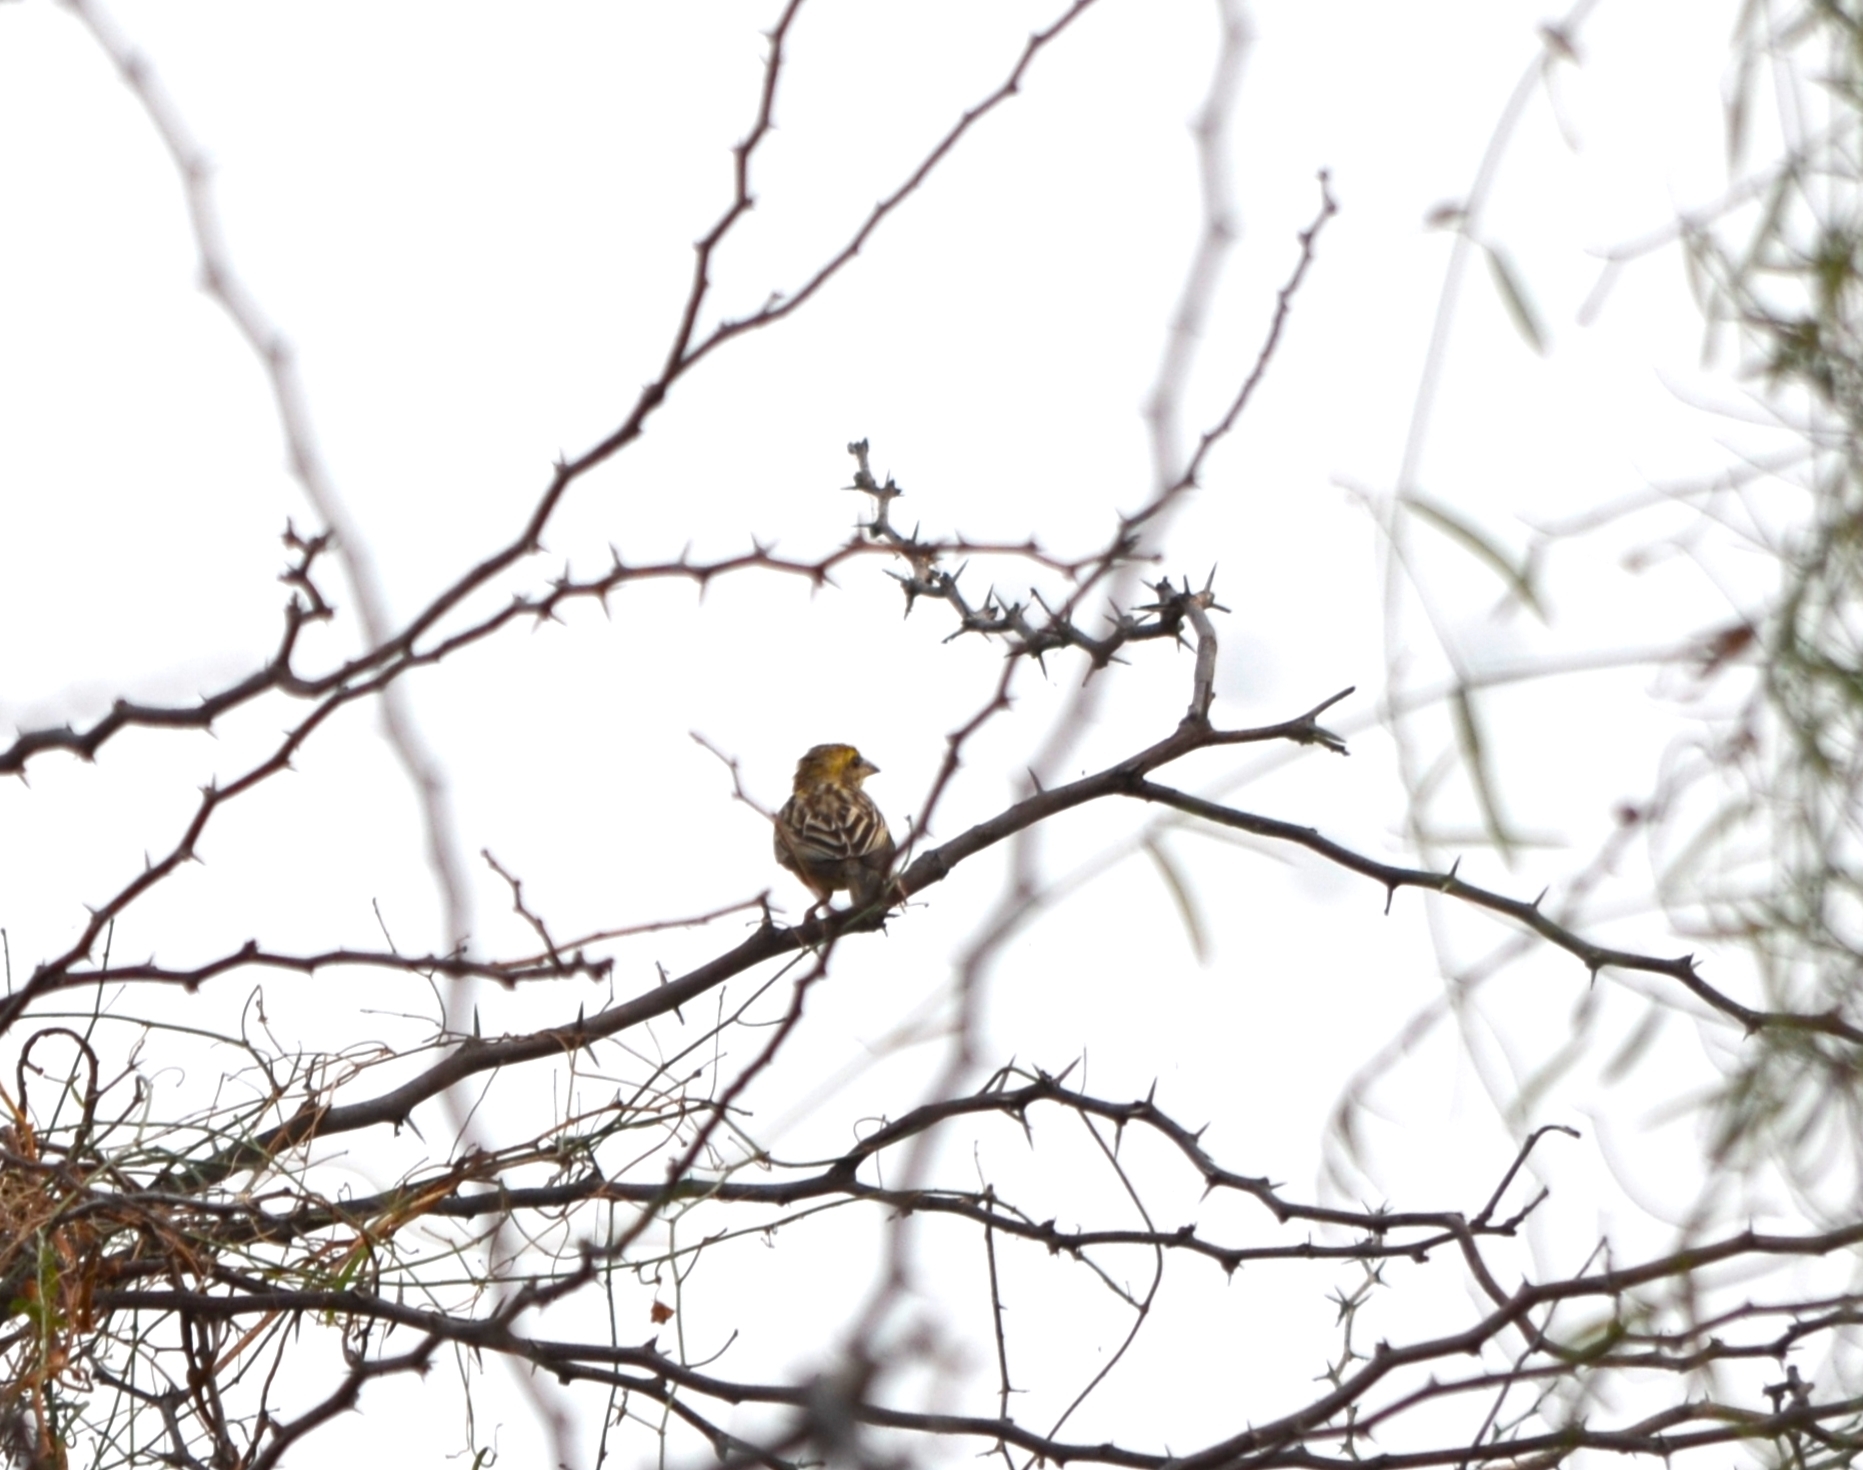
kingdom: Animalia
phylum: Chordata
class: Aves
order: Passeriformes
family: Ploceidae
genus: Ploceus
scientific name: Ploceus philippinus
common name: Baya weaver
